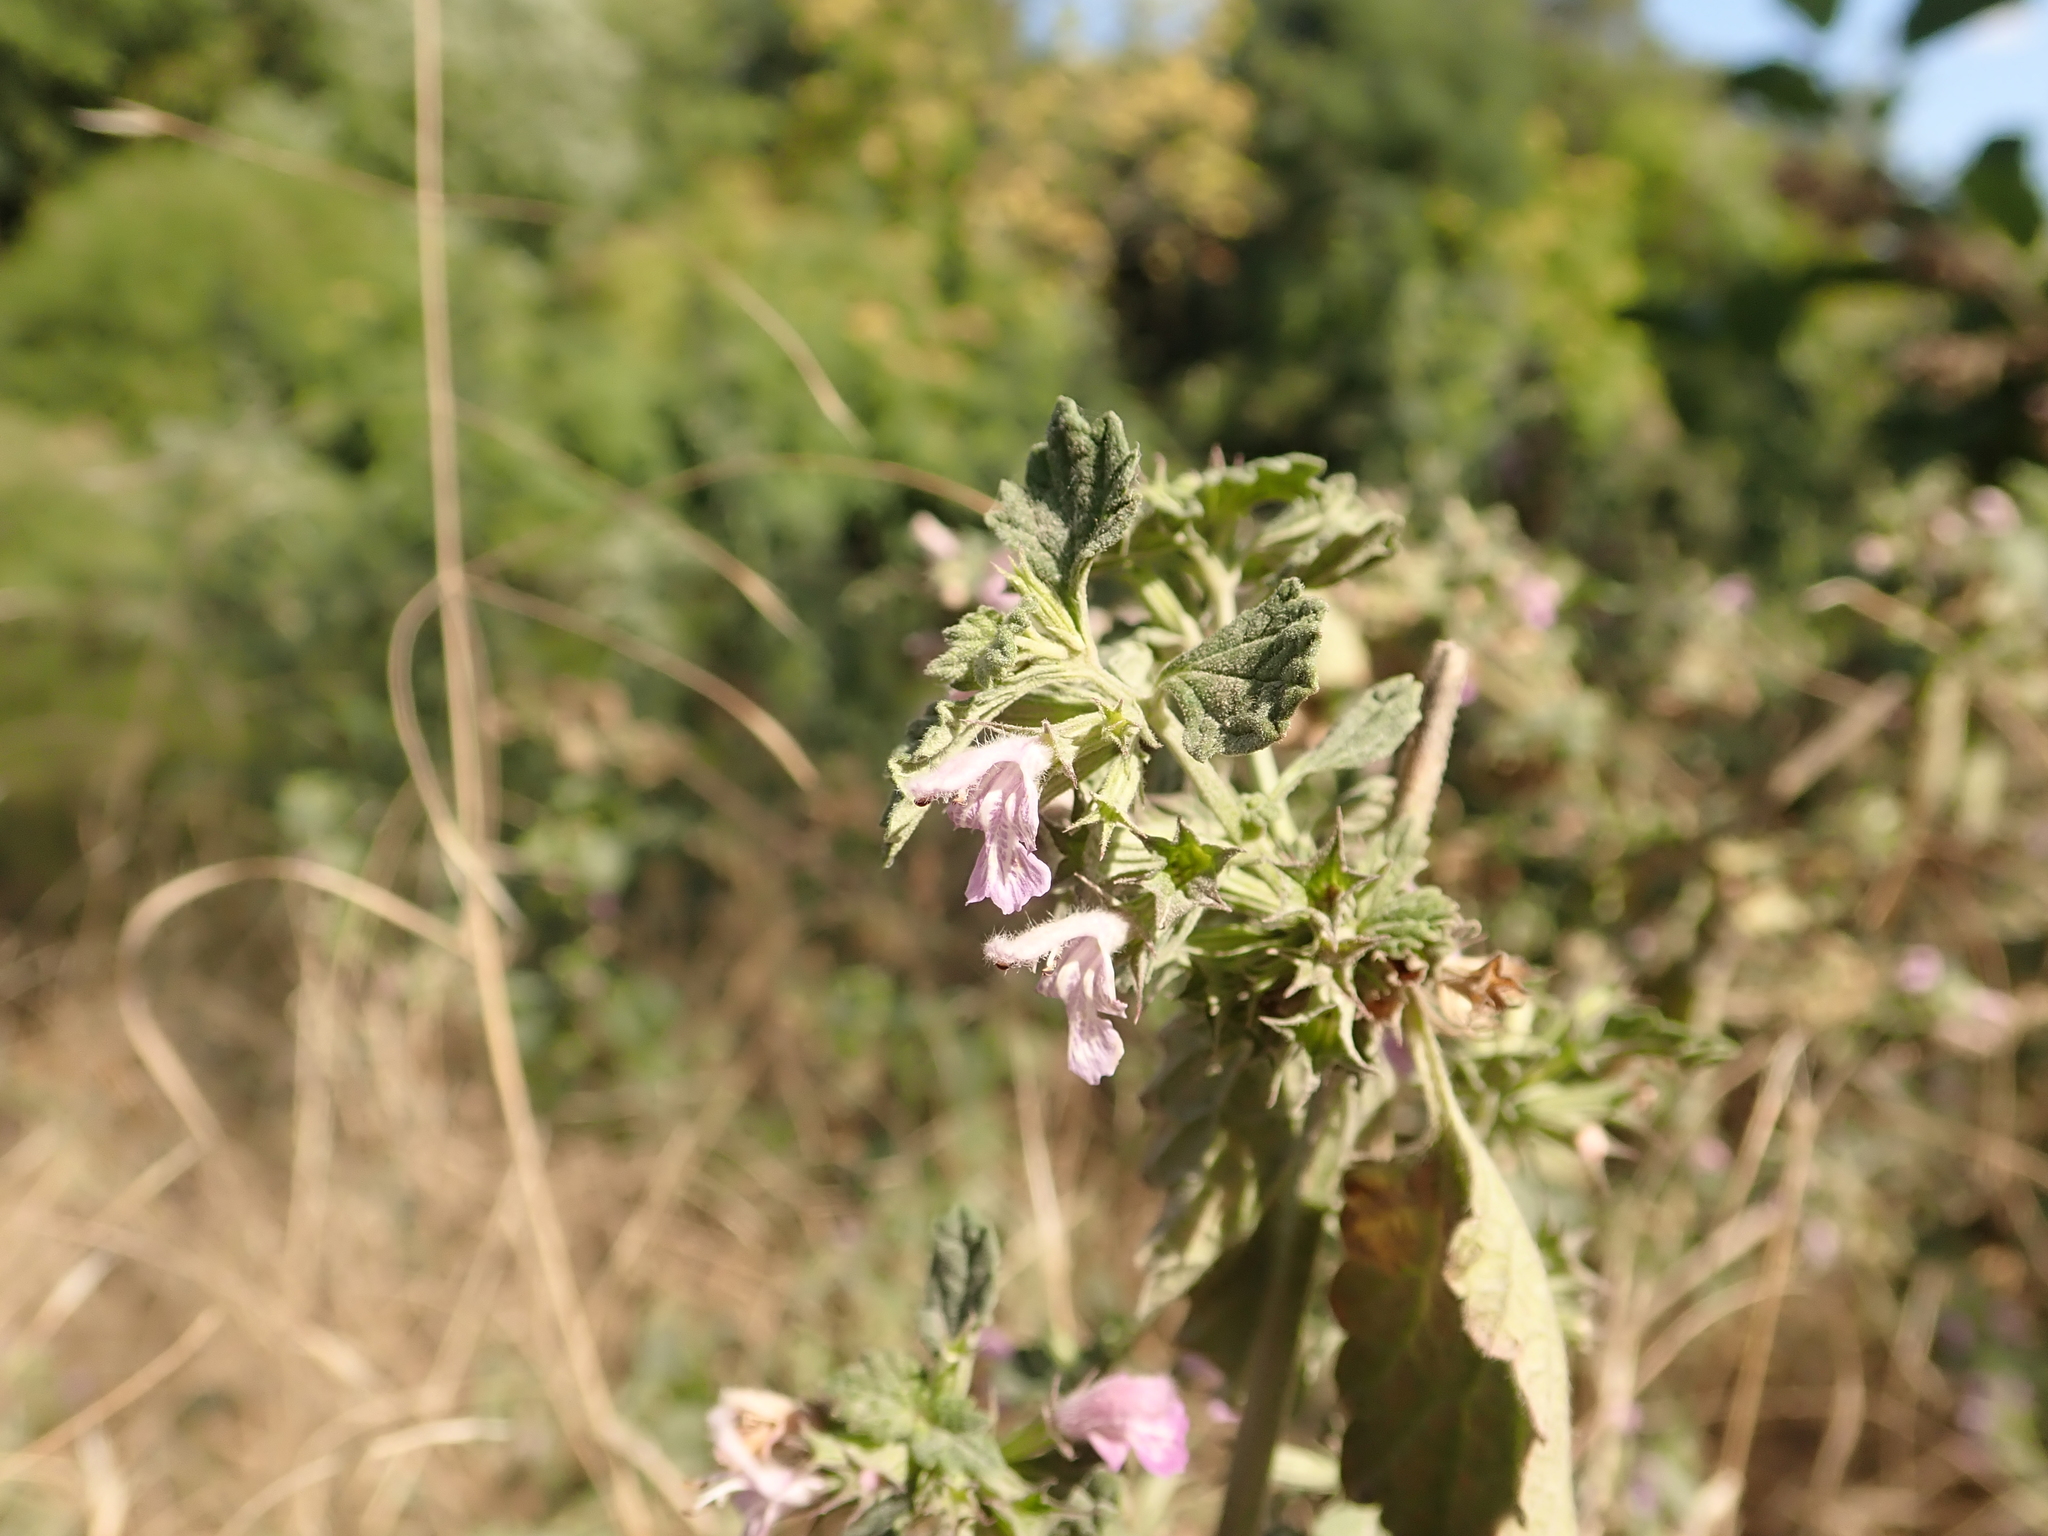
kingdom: Plantae
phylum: Tracheophyta
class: Magnoliopsida
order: Lamiales
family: Lamiaceae
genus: Ballota
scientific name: Ballota nigra
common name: Black horehound
